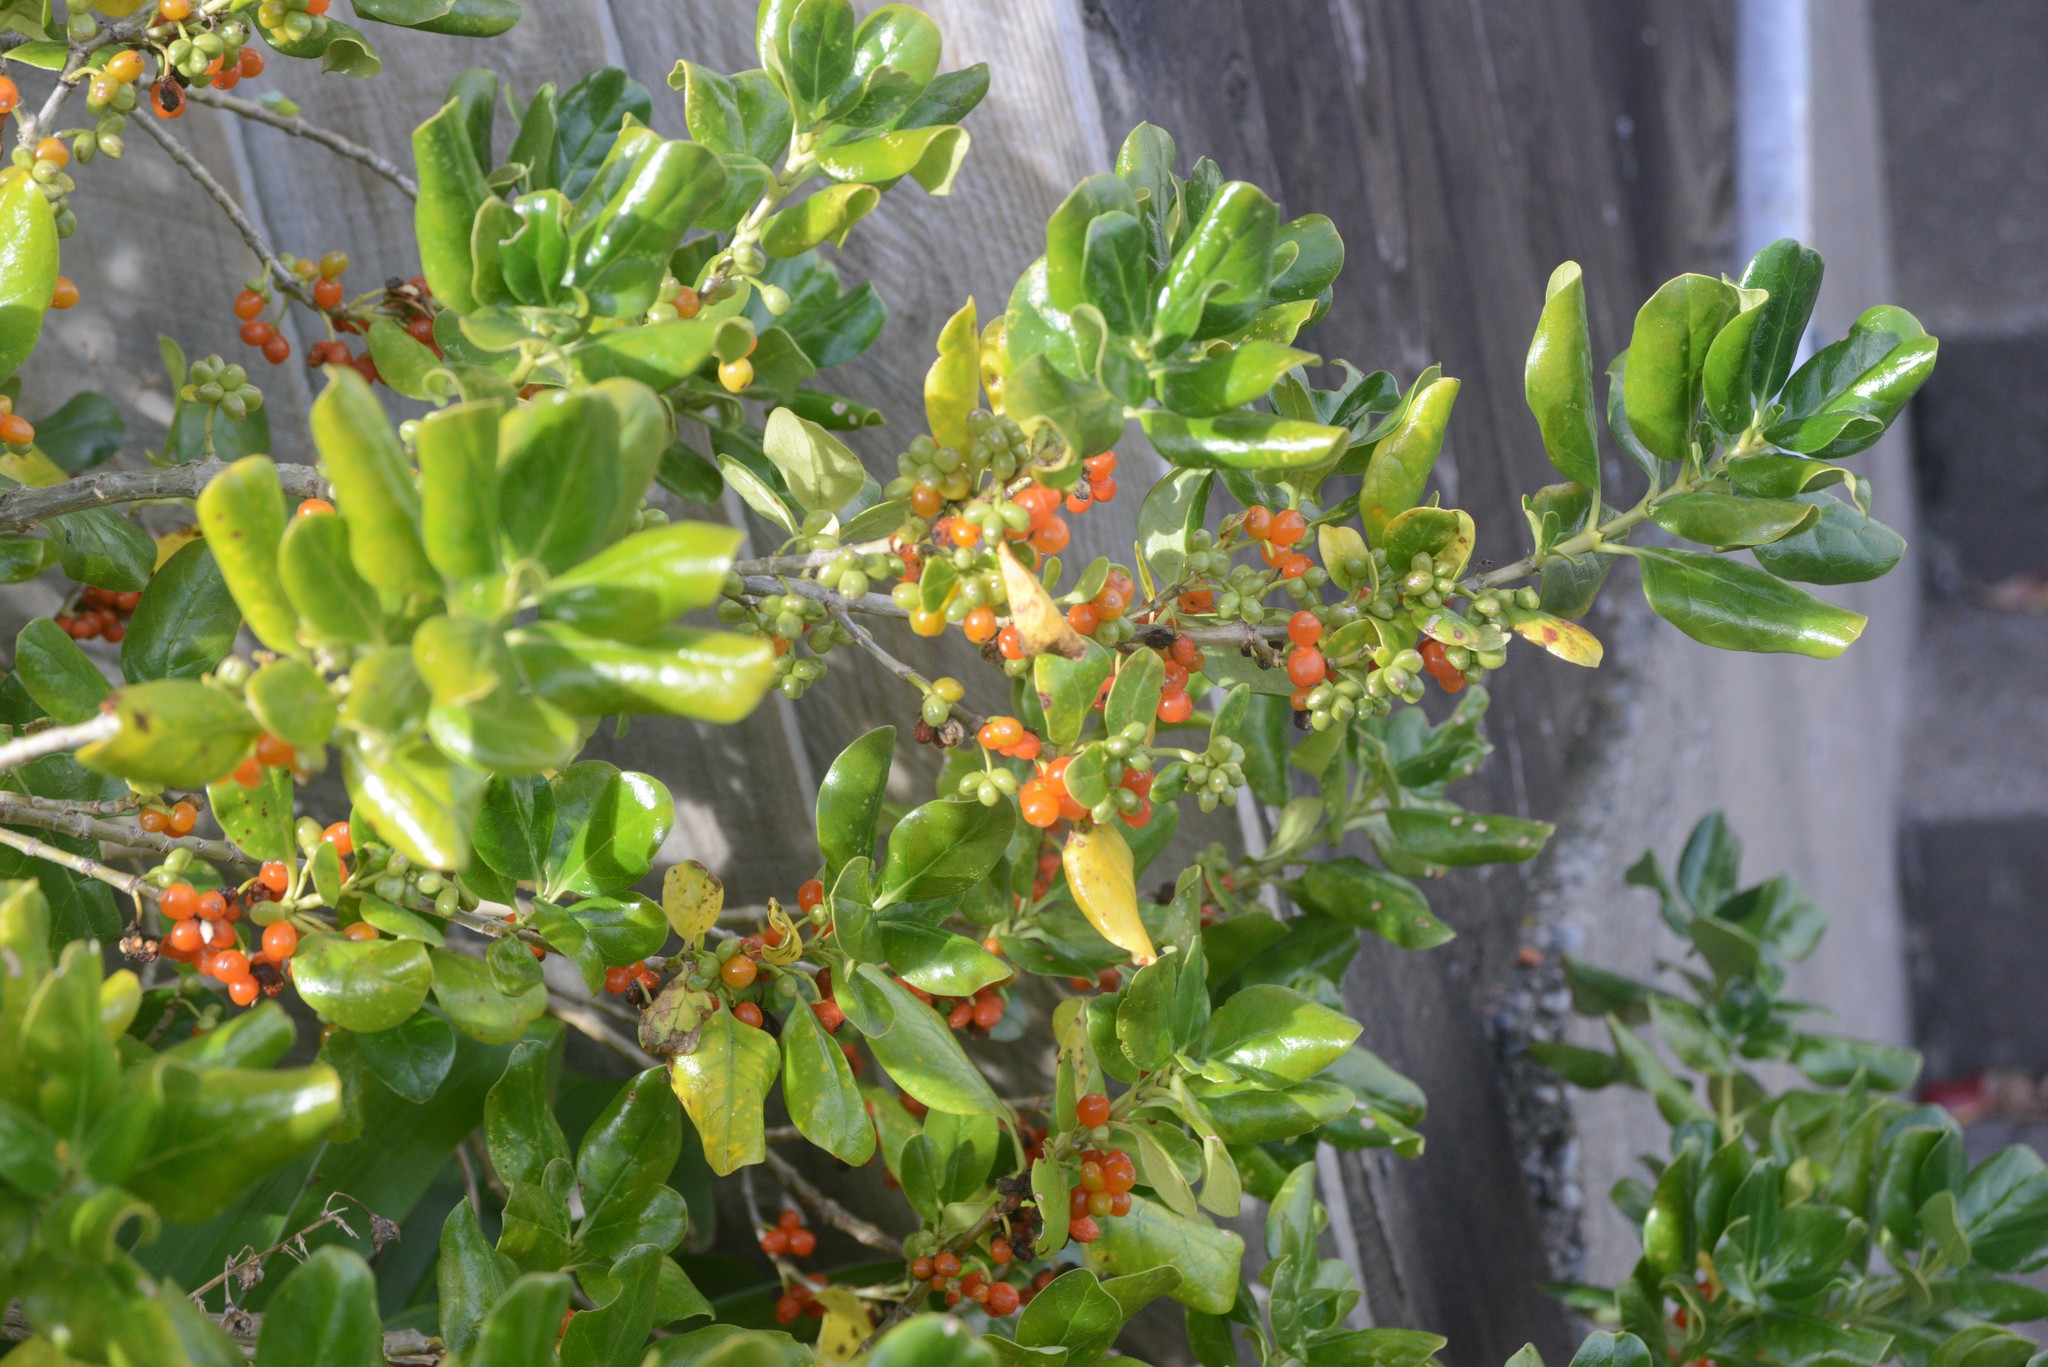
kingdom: Plantae
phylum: Tracheophyta
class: Magnoliopsida
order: Gentianales
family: Rubiaceae
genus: Coprosma
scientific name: Coprosma repens
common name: Tree bedstraw
